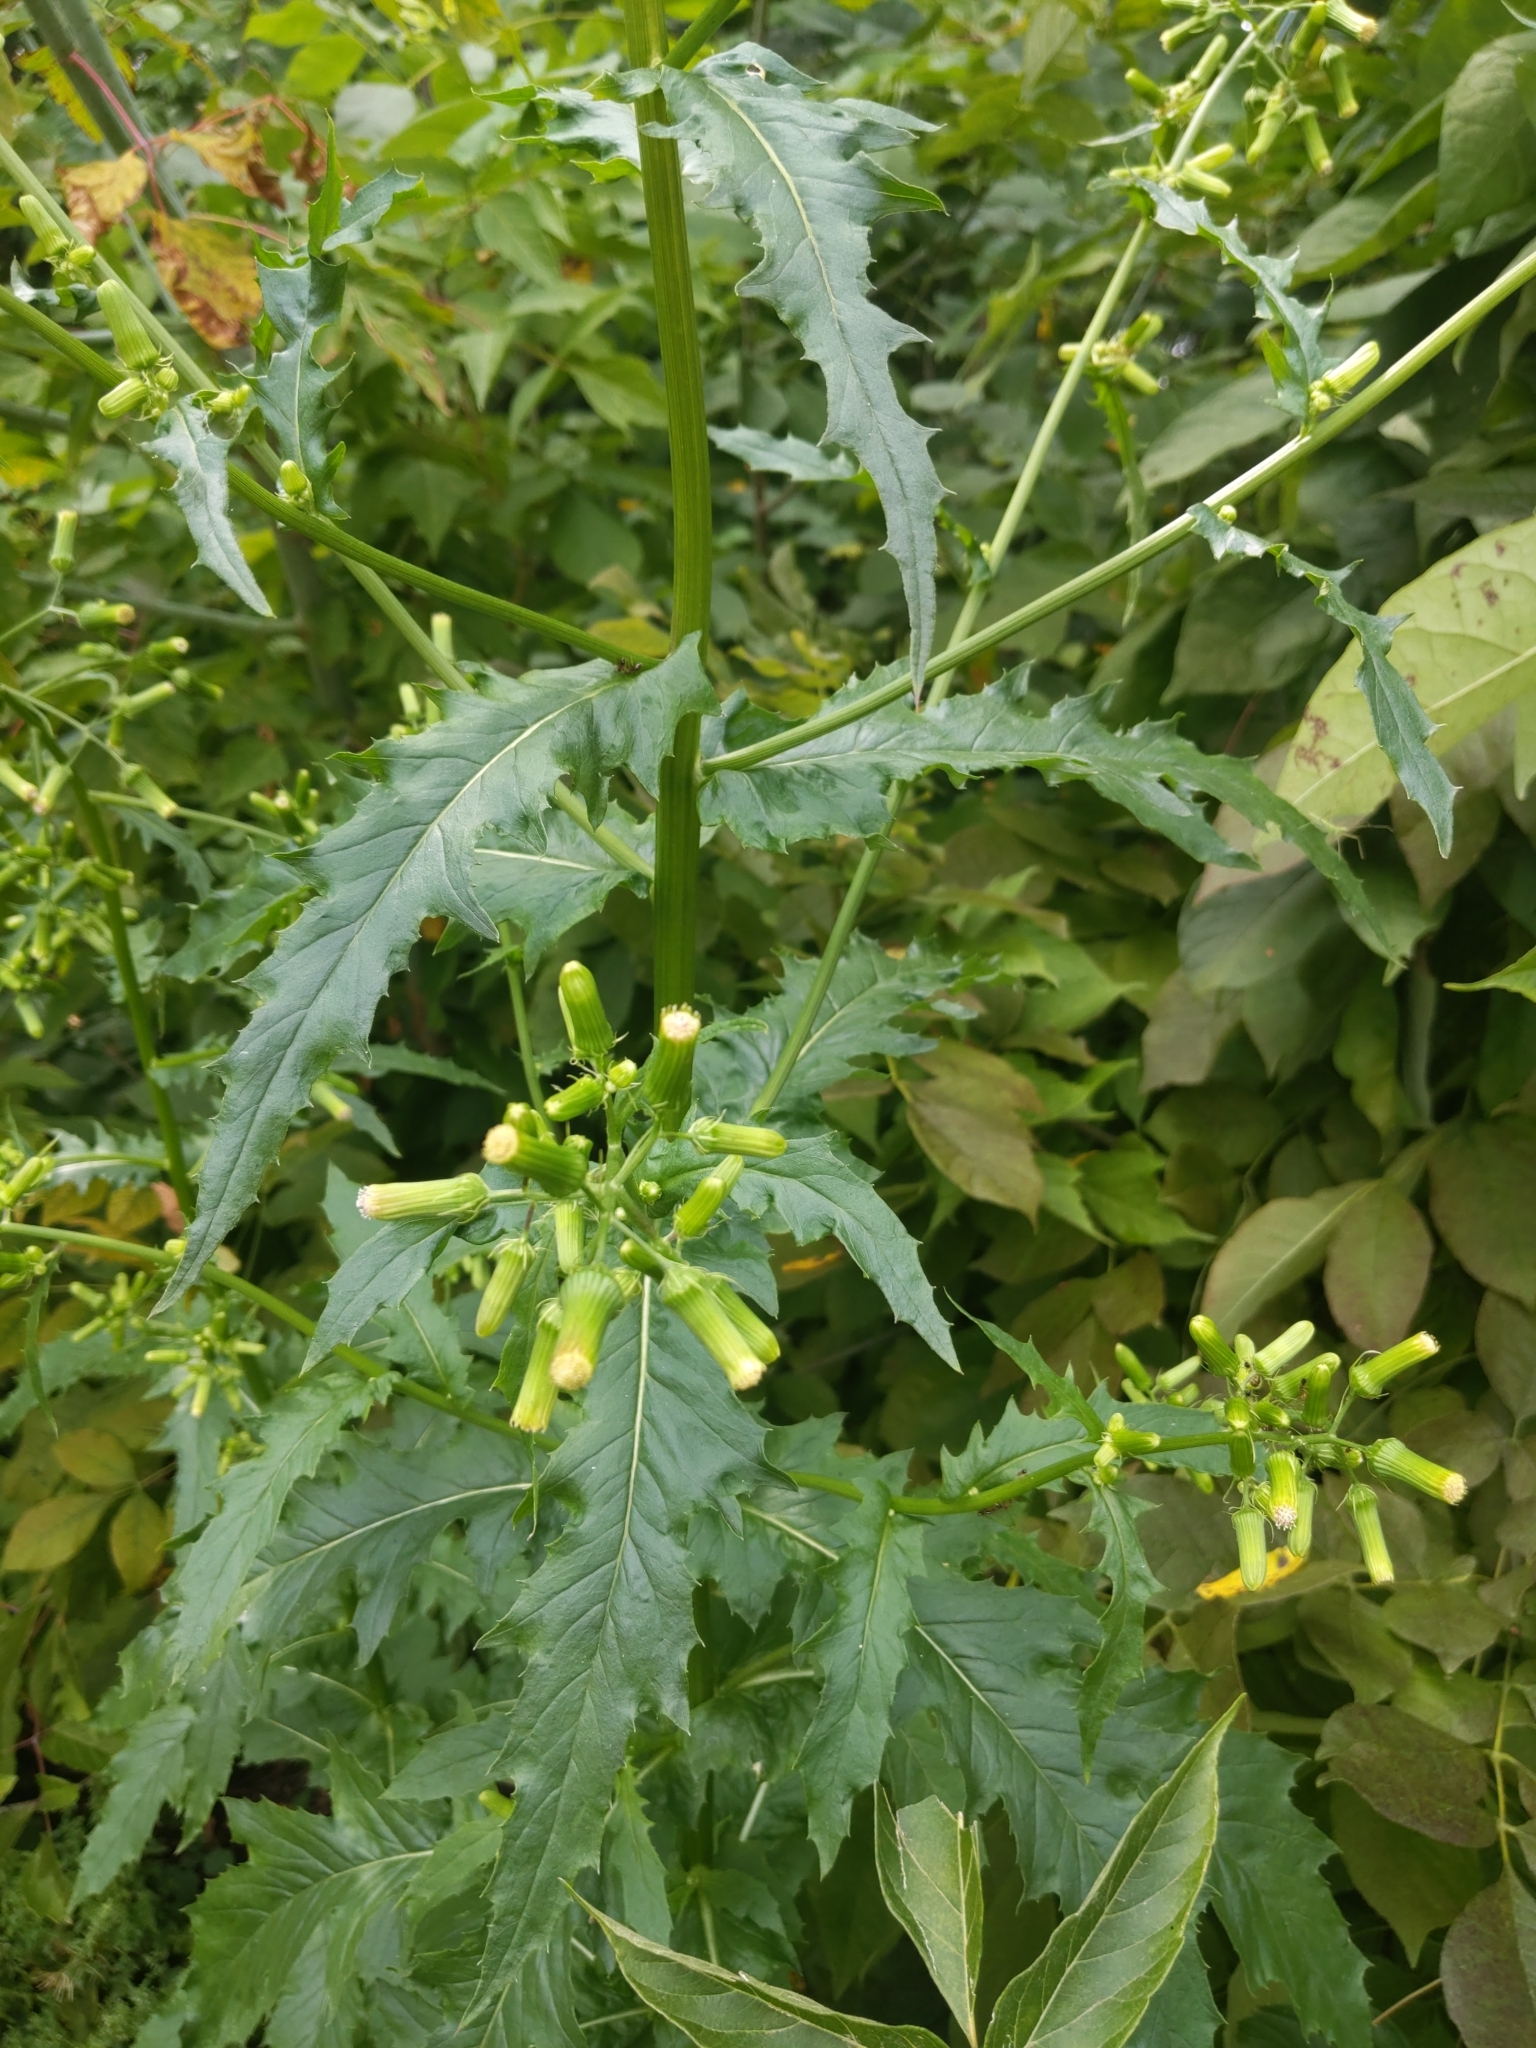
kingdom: Plantae
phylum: Tracheophyta
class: Magnoliopsida
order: Asterales
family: Asteraceae
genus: Erechtites
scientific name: Erechtites hieraciifolius
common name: American burnweed
